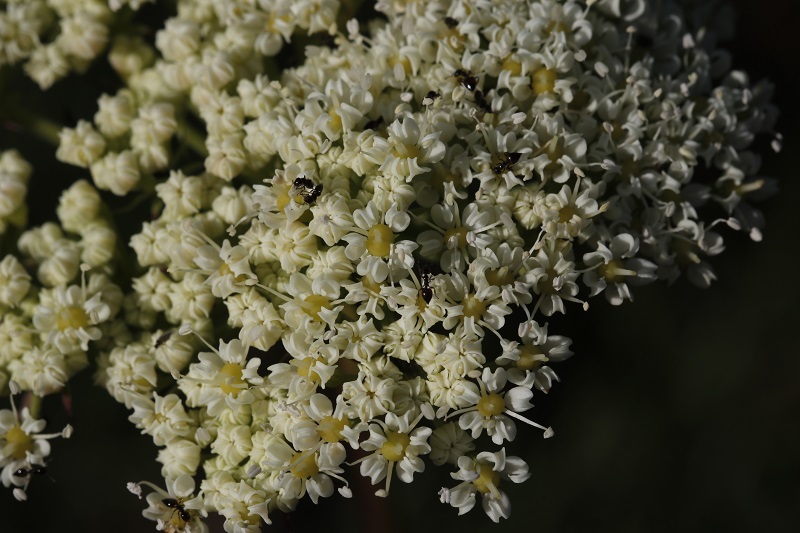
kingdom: Plantae
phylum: Tracheophyta
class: Magnoliopsida
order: Apiales
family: Apiaceae
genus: Nanobubon
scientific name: Nanobubon capillaceum
